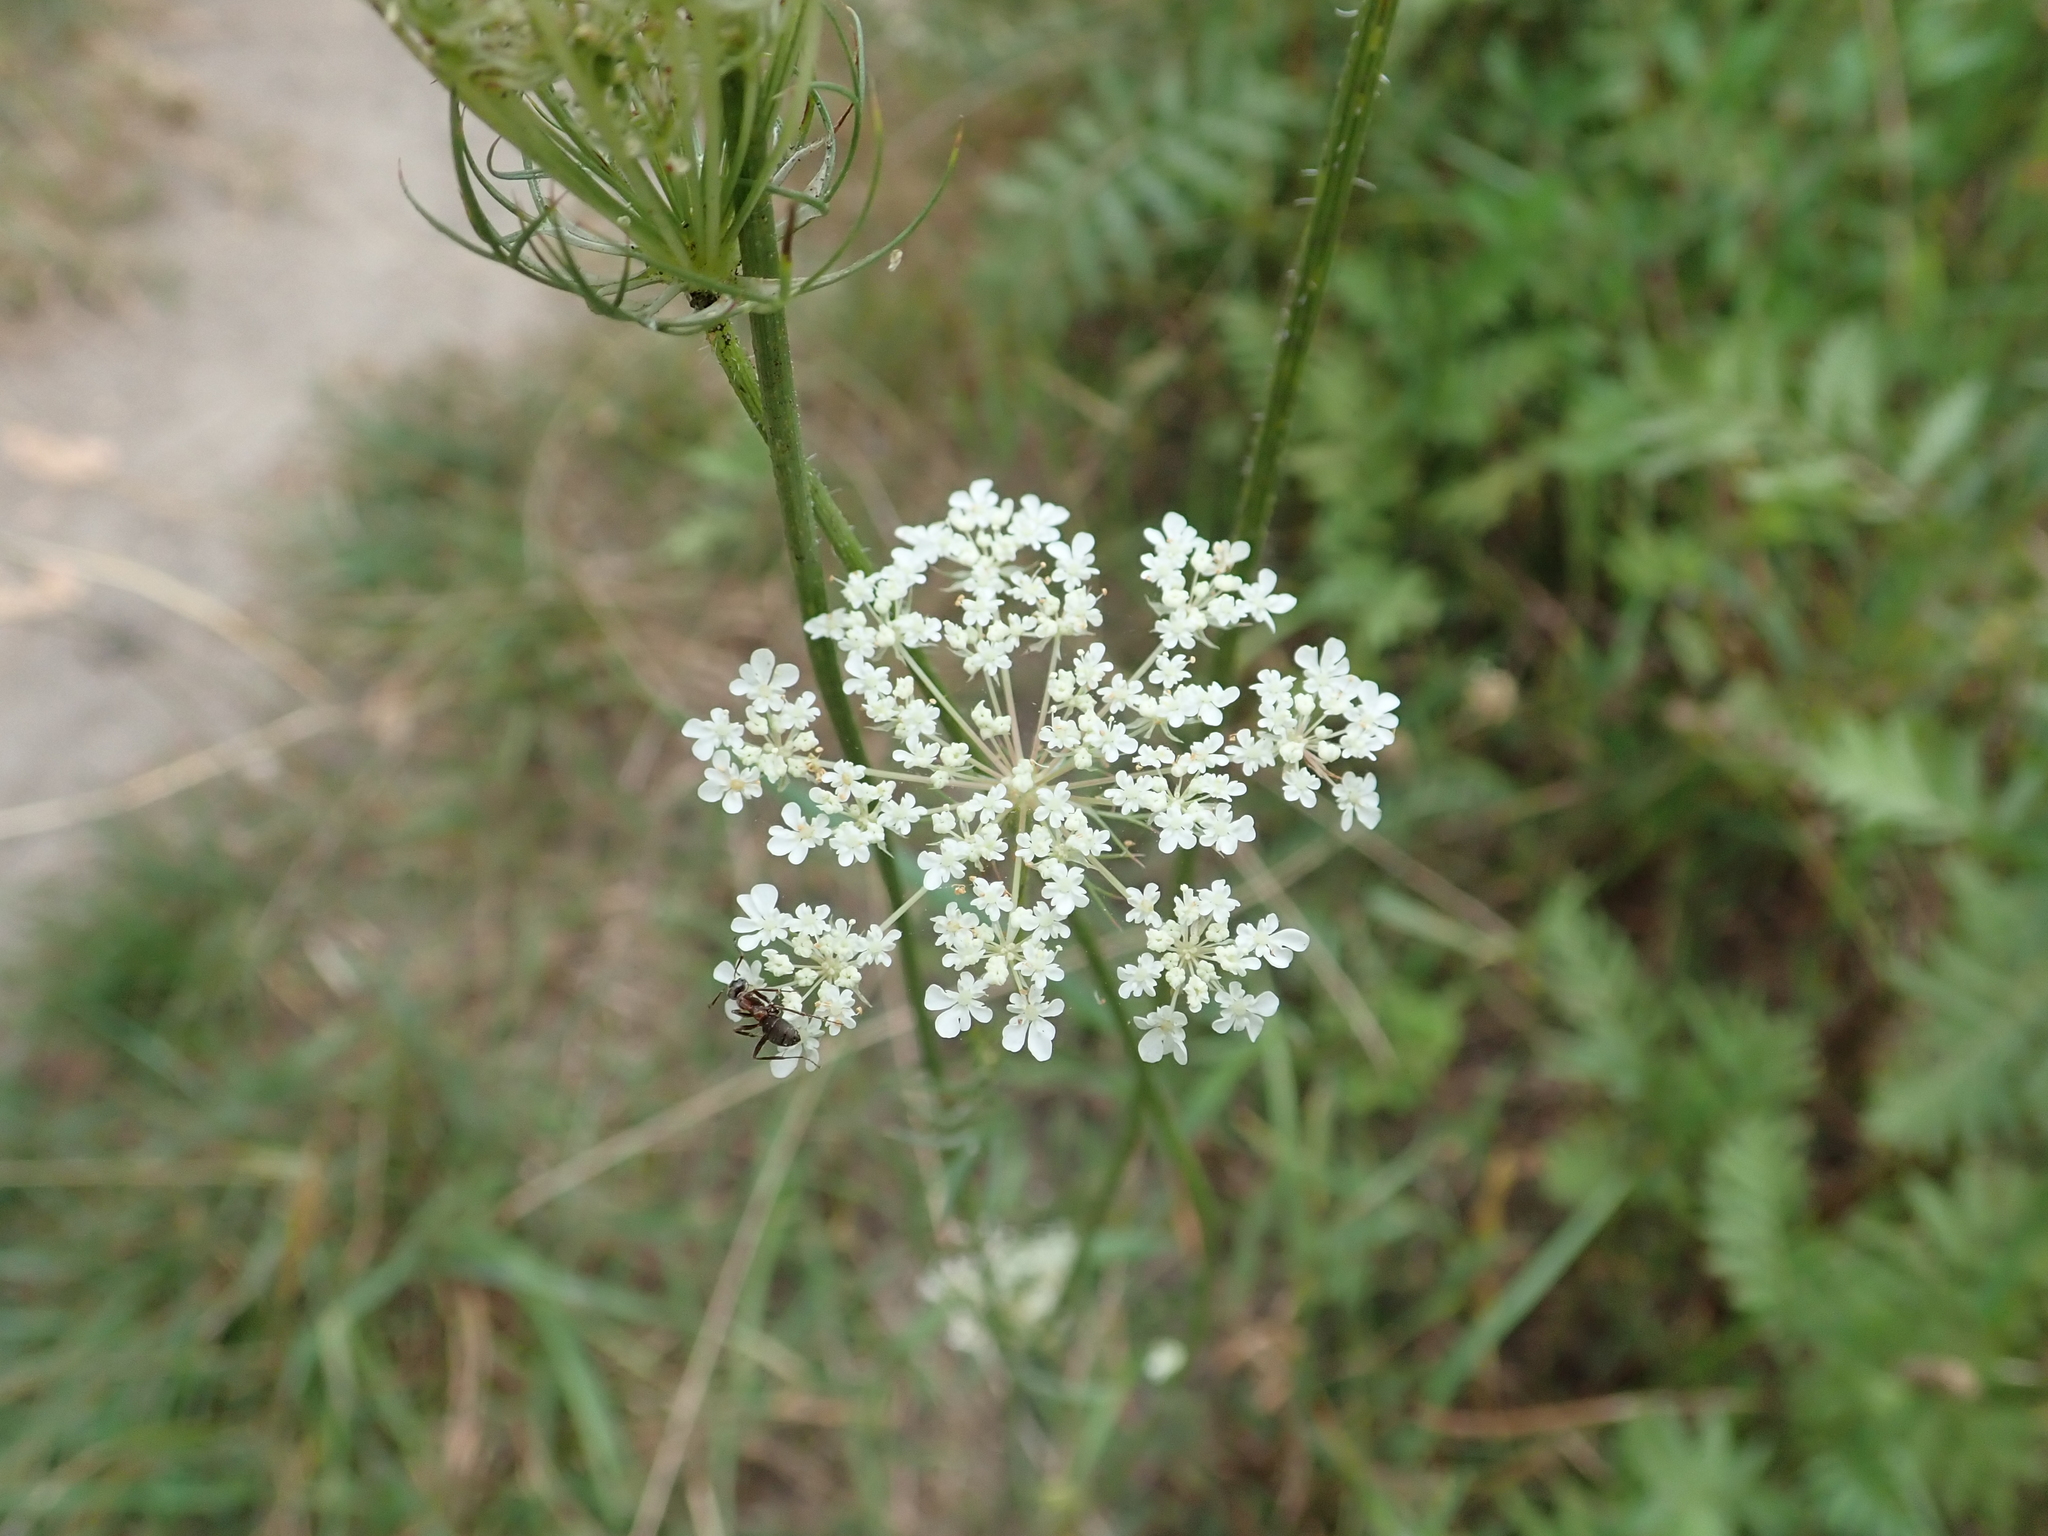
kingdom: Plantae
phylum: Tracheophyta
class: Magnoliopsida
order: Apiales
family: Apiaceae
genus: Daucus
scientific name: Daucus carota
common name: Wild carrot
